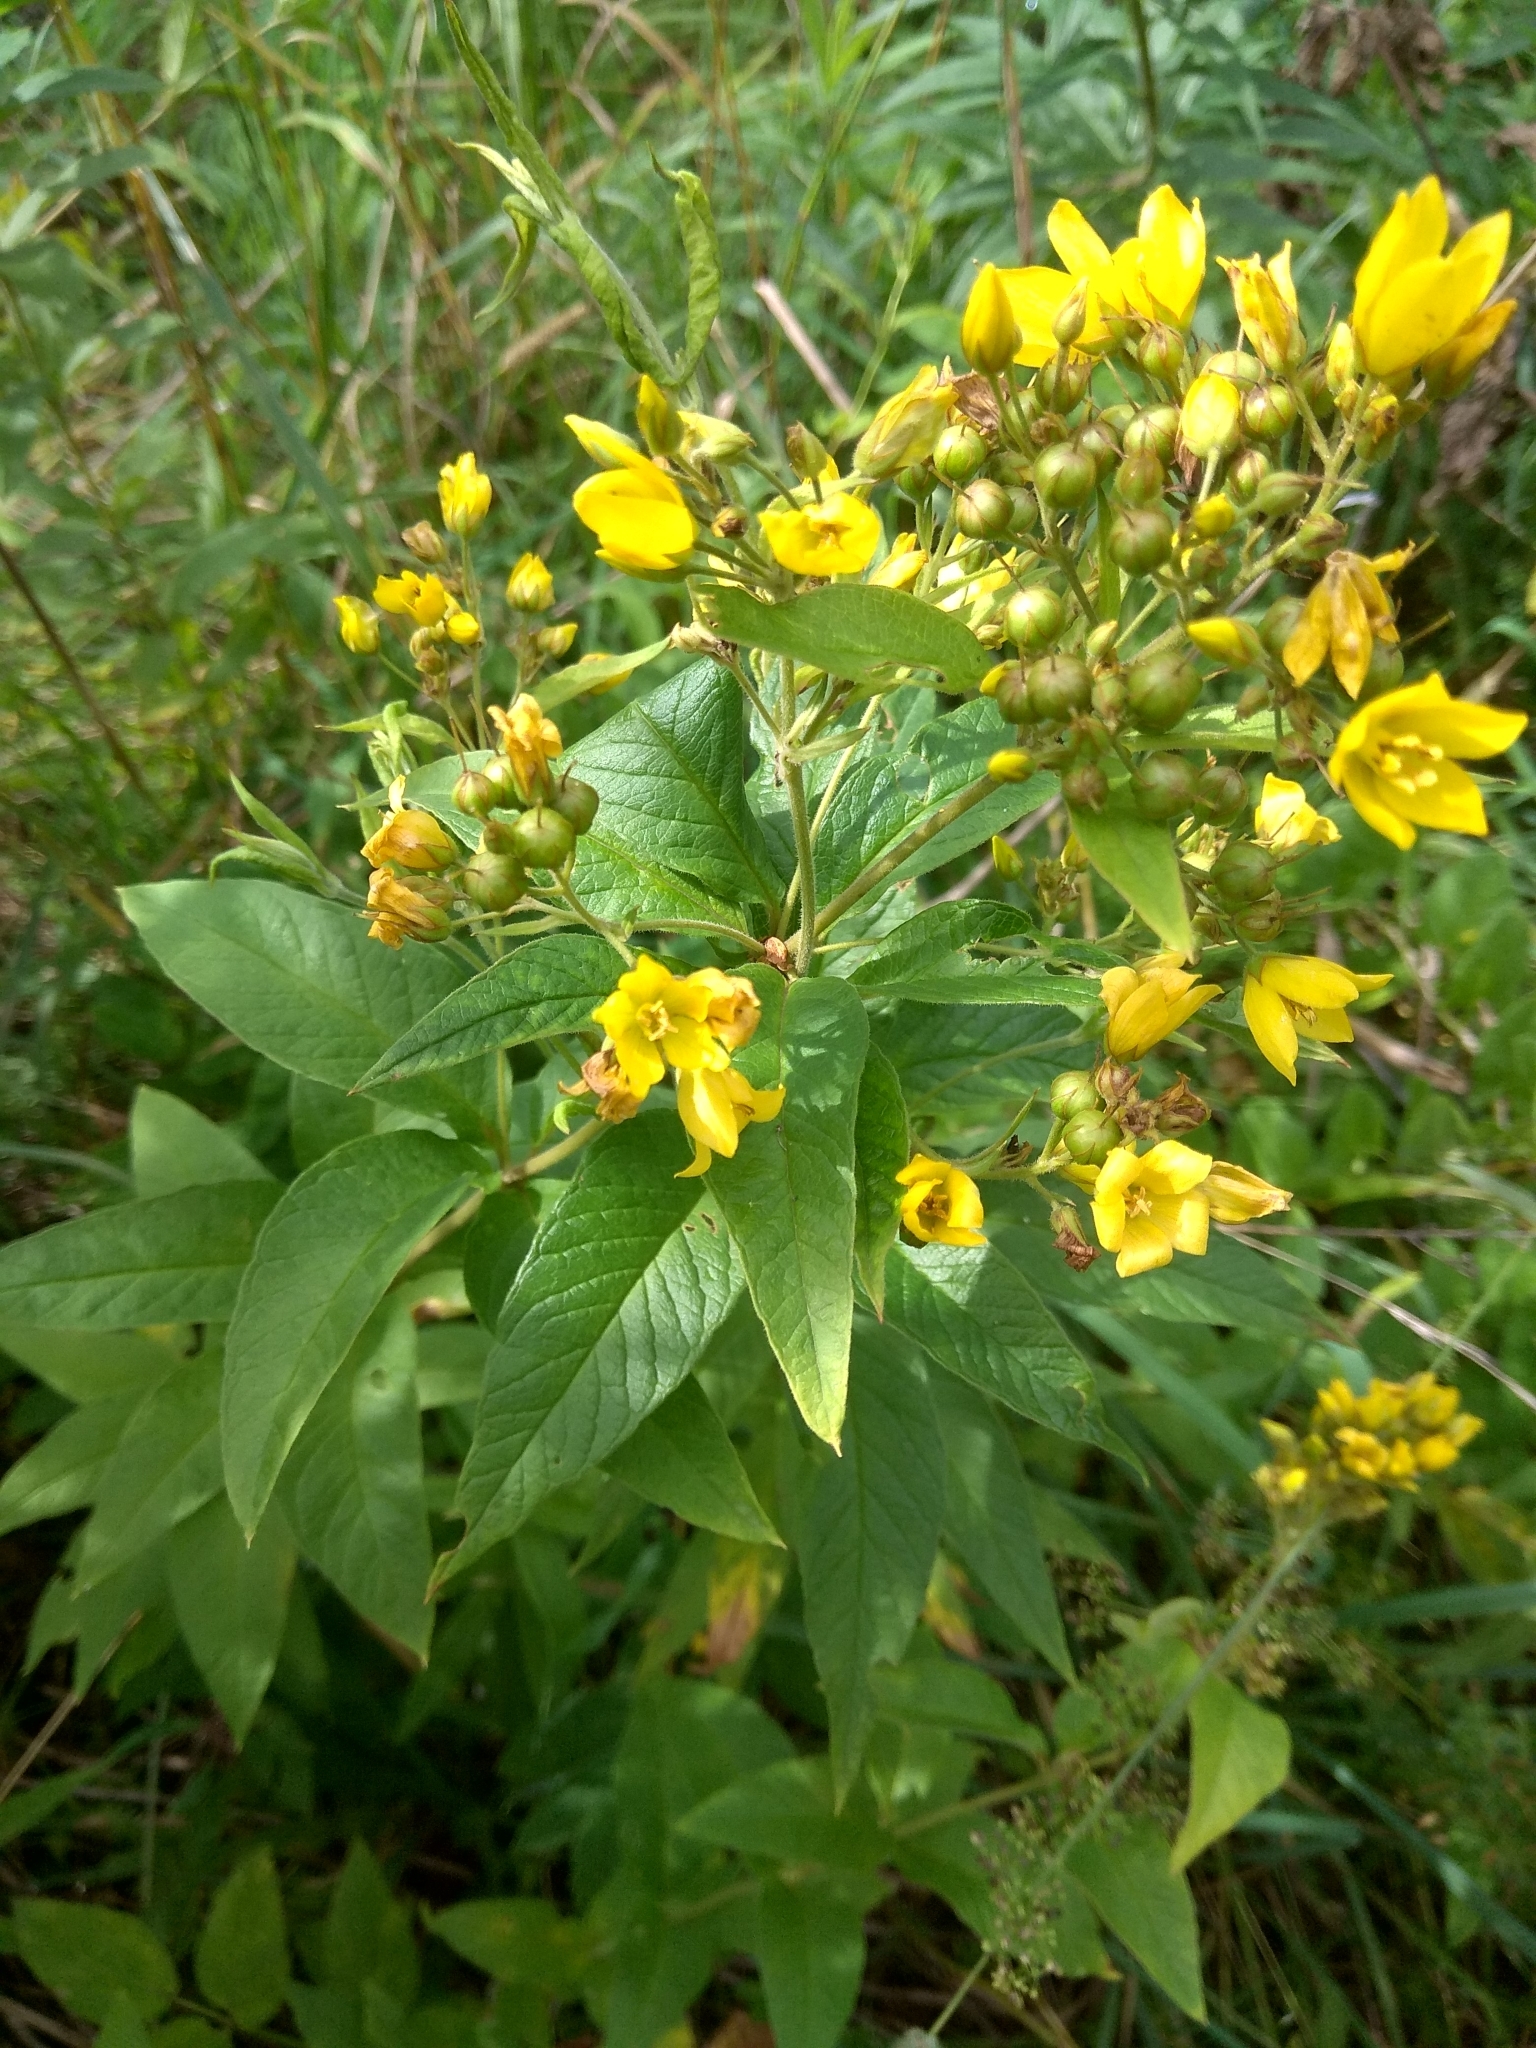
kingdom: Plantae
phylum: Tracheophyta
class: Magnoliopsida
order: Ericales
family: Primulaceae
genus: Lysimachia
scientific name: Lysimachia vulgaris
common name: Yellow loosestrife
